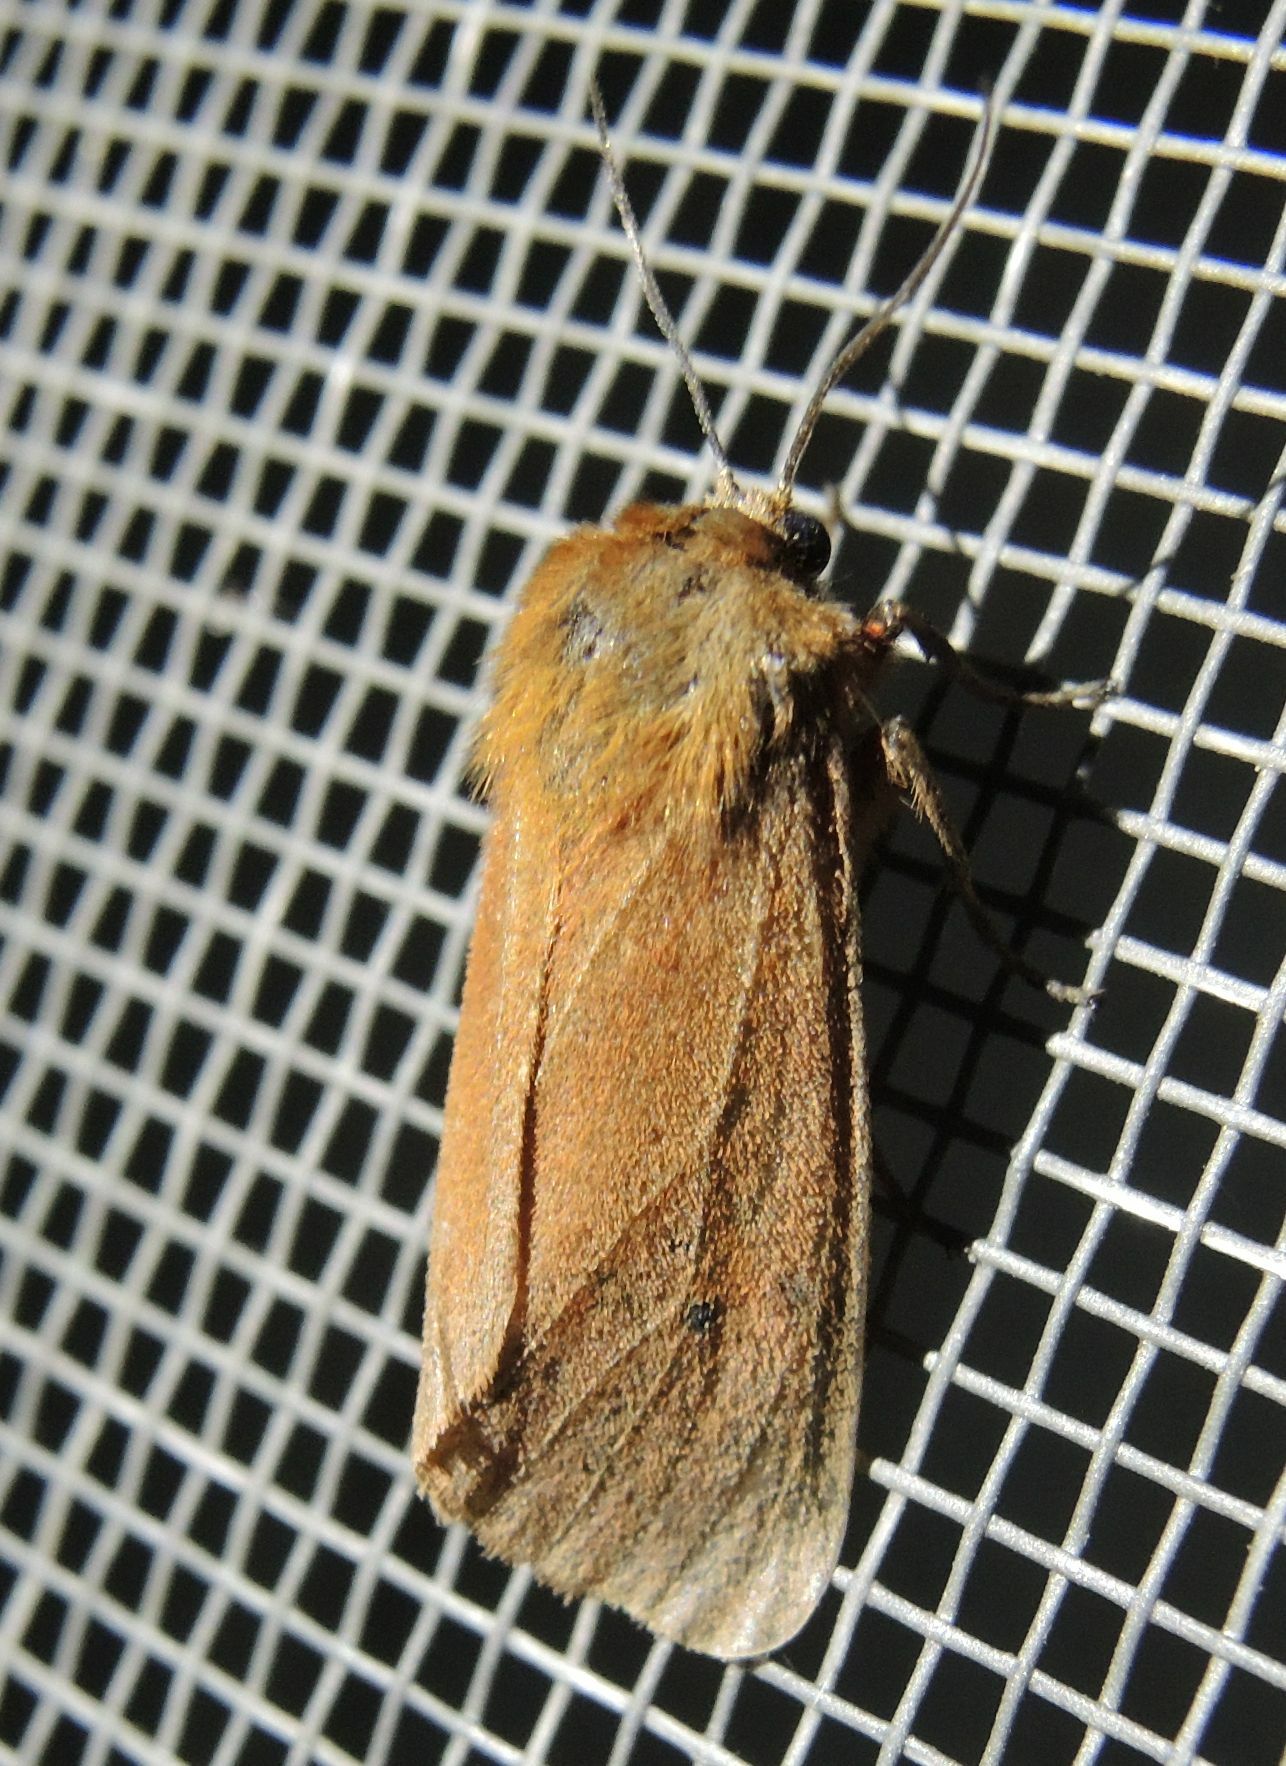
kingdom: Animalia
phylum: Arthropoda
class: Insecta
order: Lepidoptera
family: Erebidae
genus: Phragmatobia
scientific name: Phragmatobia fuliginosa
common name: Ruby tiger
